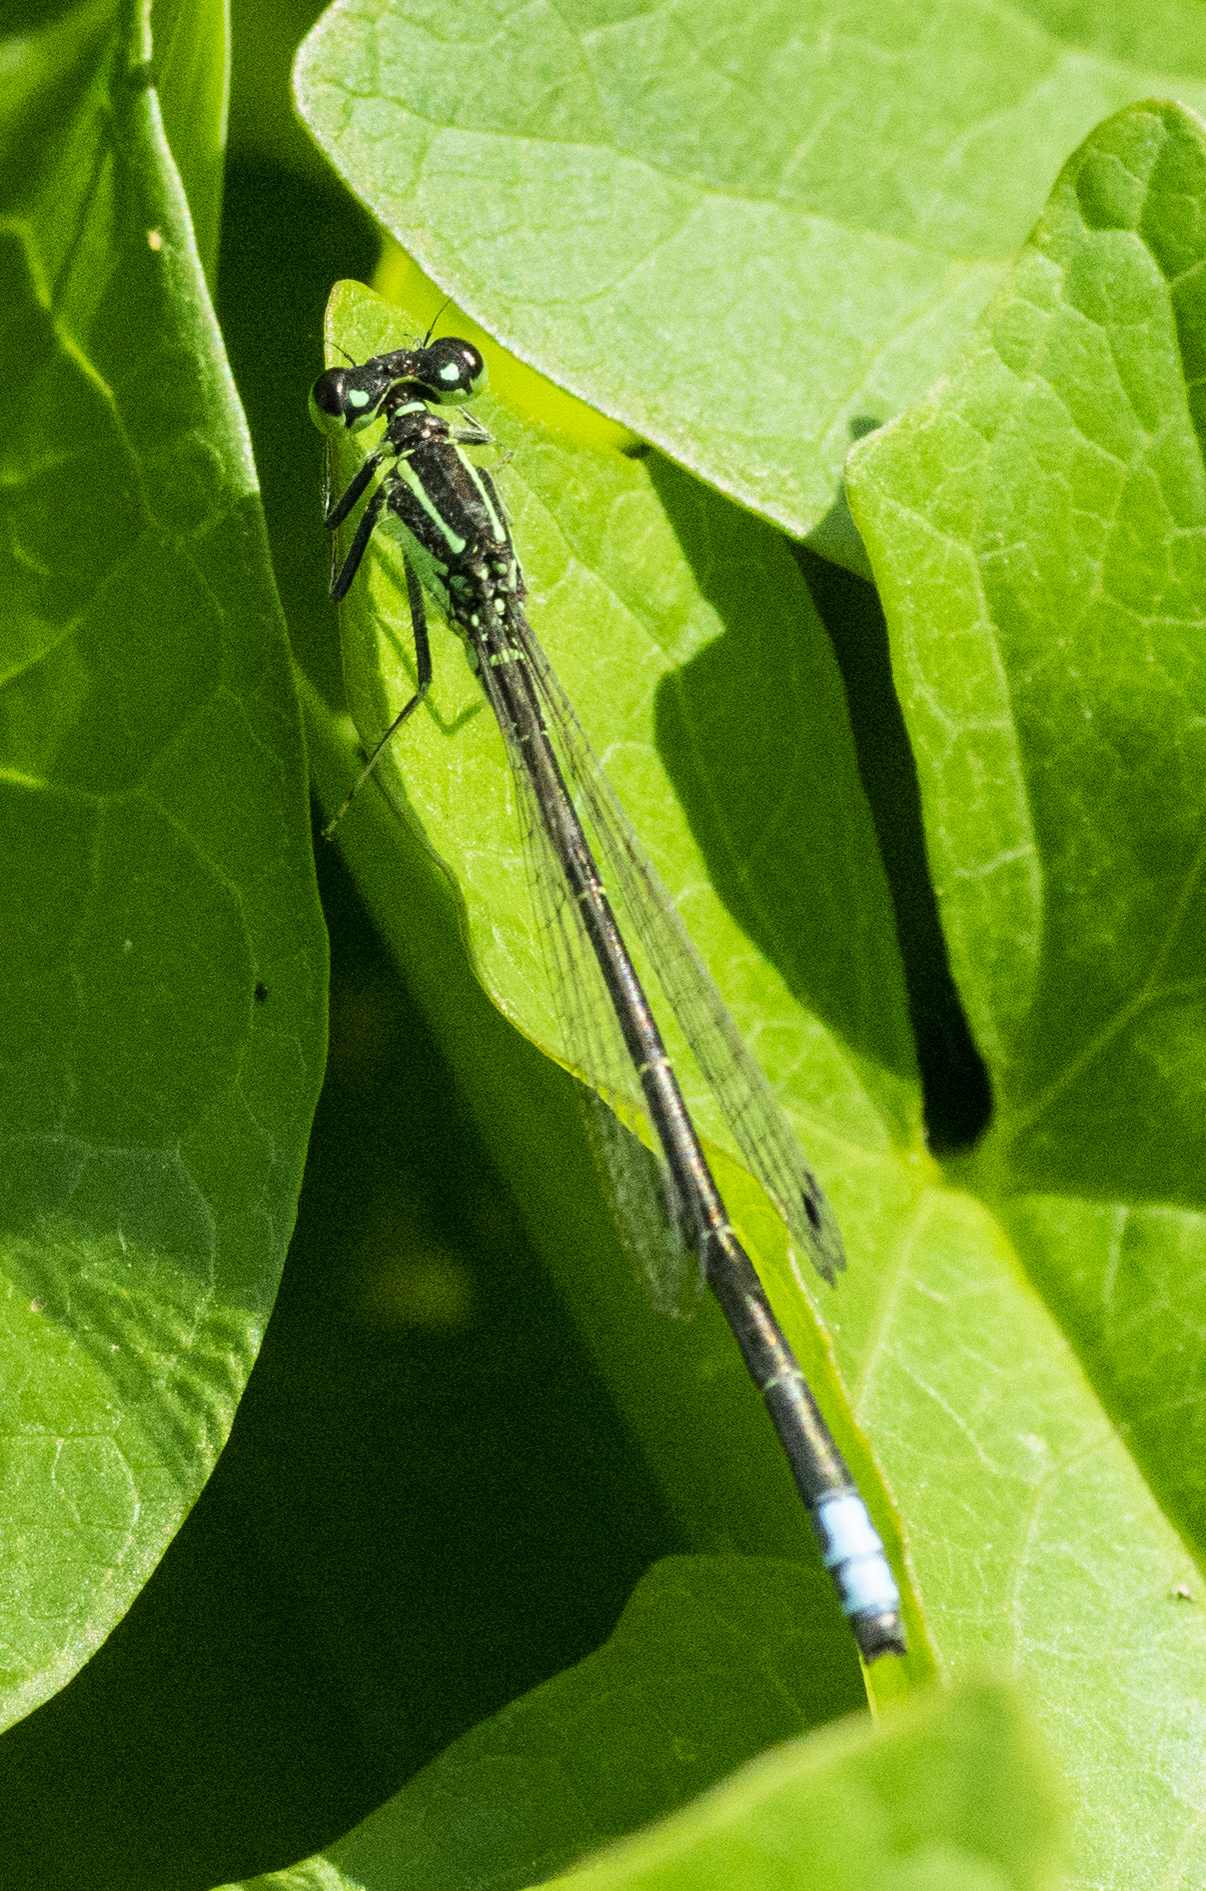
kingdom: Animalia
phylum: Arthropoda
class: Insecta
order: Odonata
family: Coenagrionidae
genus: Ischnura
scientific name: Ischnura verticalis
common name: Eastern forktail
